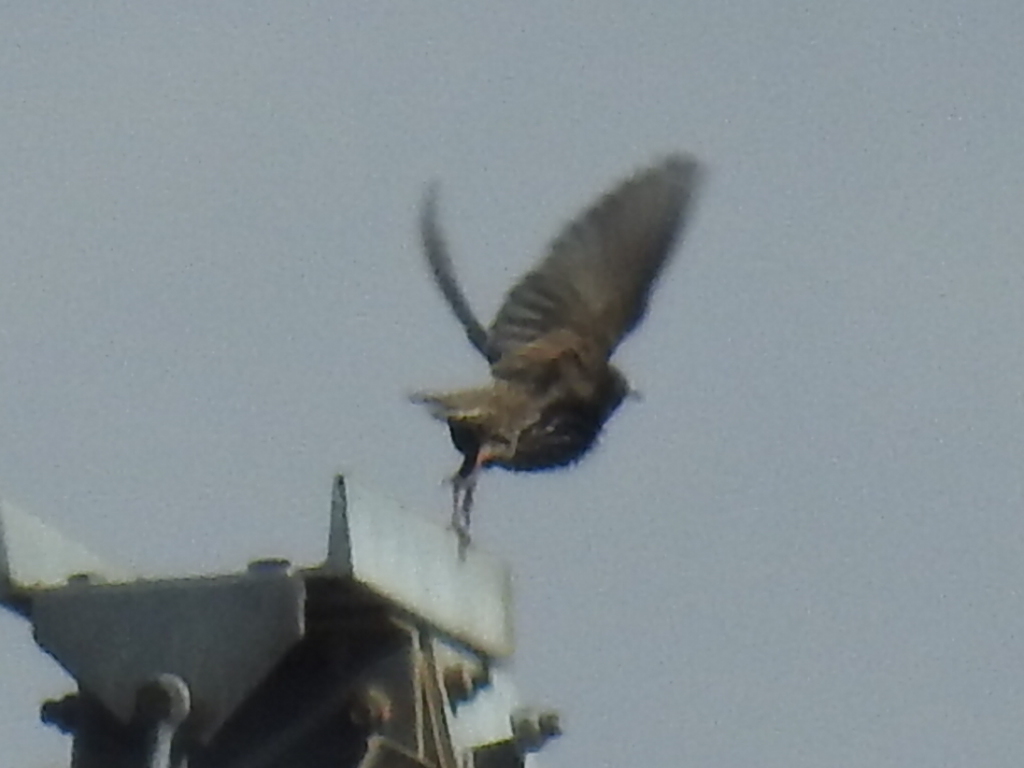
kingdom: Animalia
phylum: Chordata
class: Aves
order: Passeriformes
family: Sturnidae
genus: Sturnus
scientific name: Sturnus vulgaris
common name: Common starling
